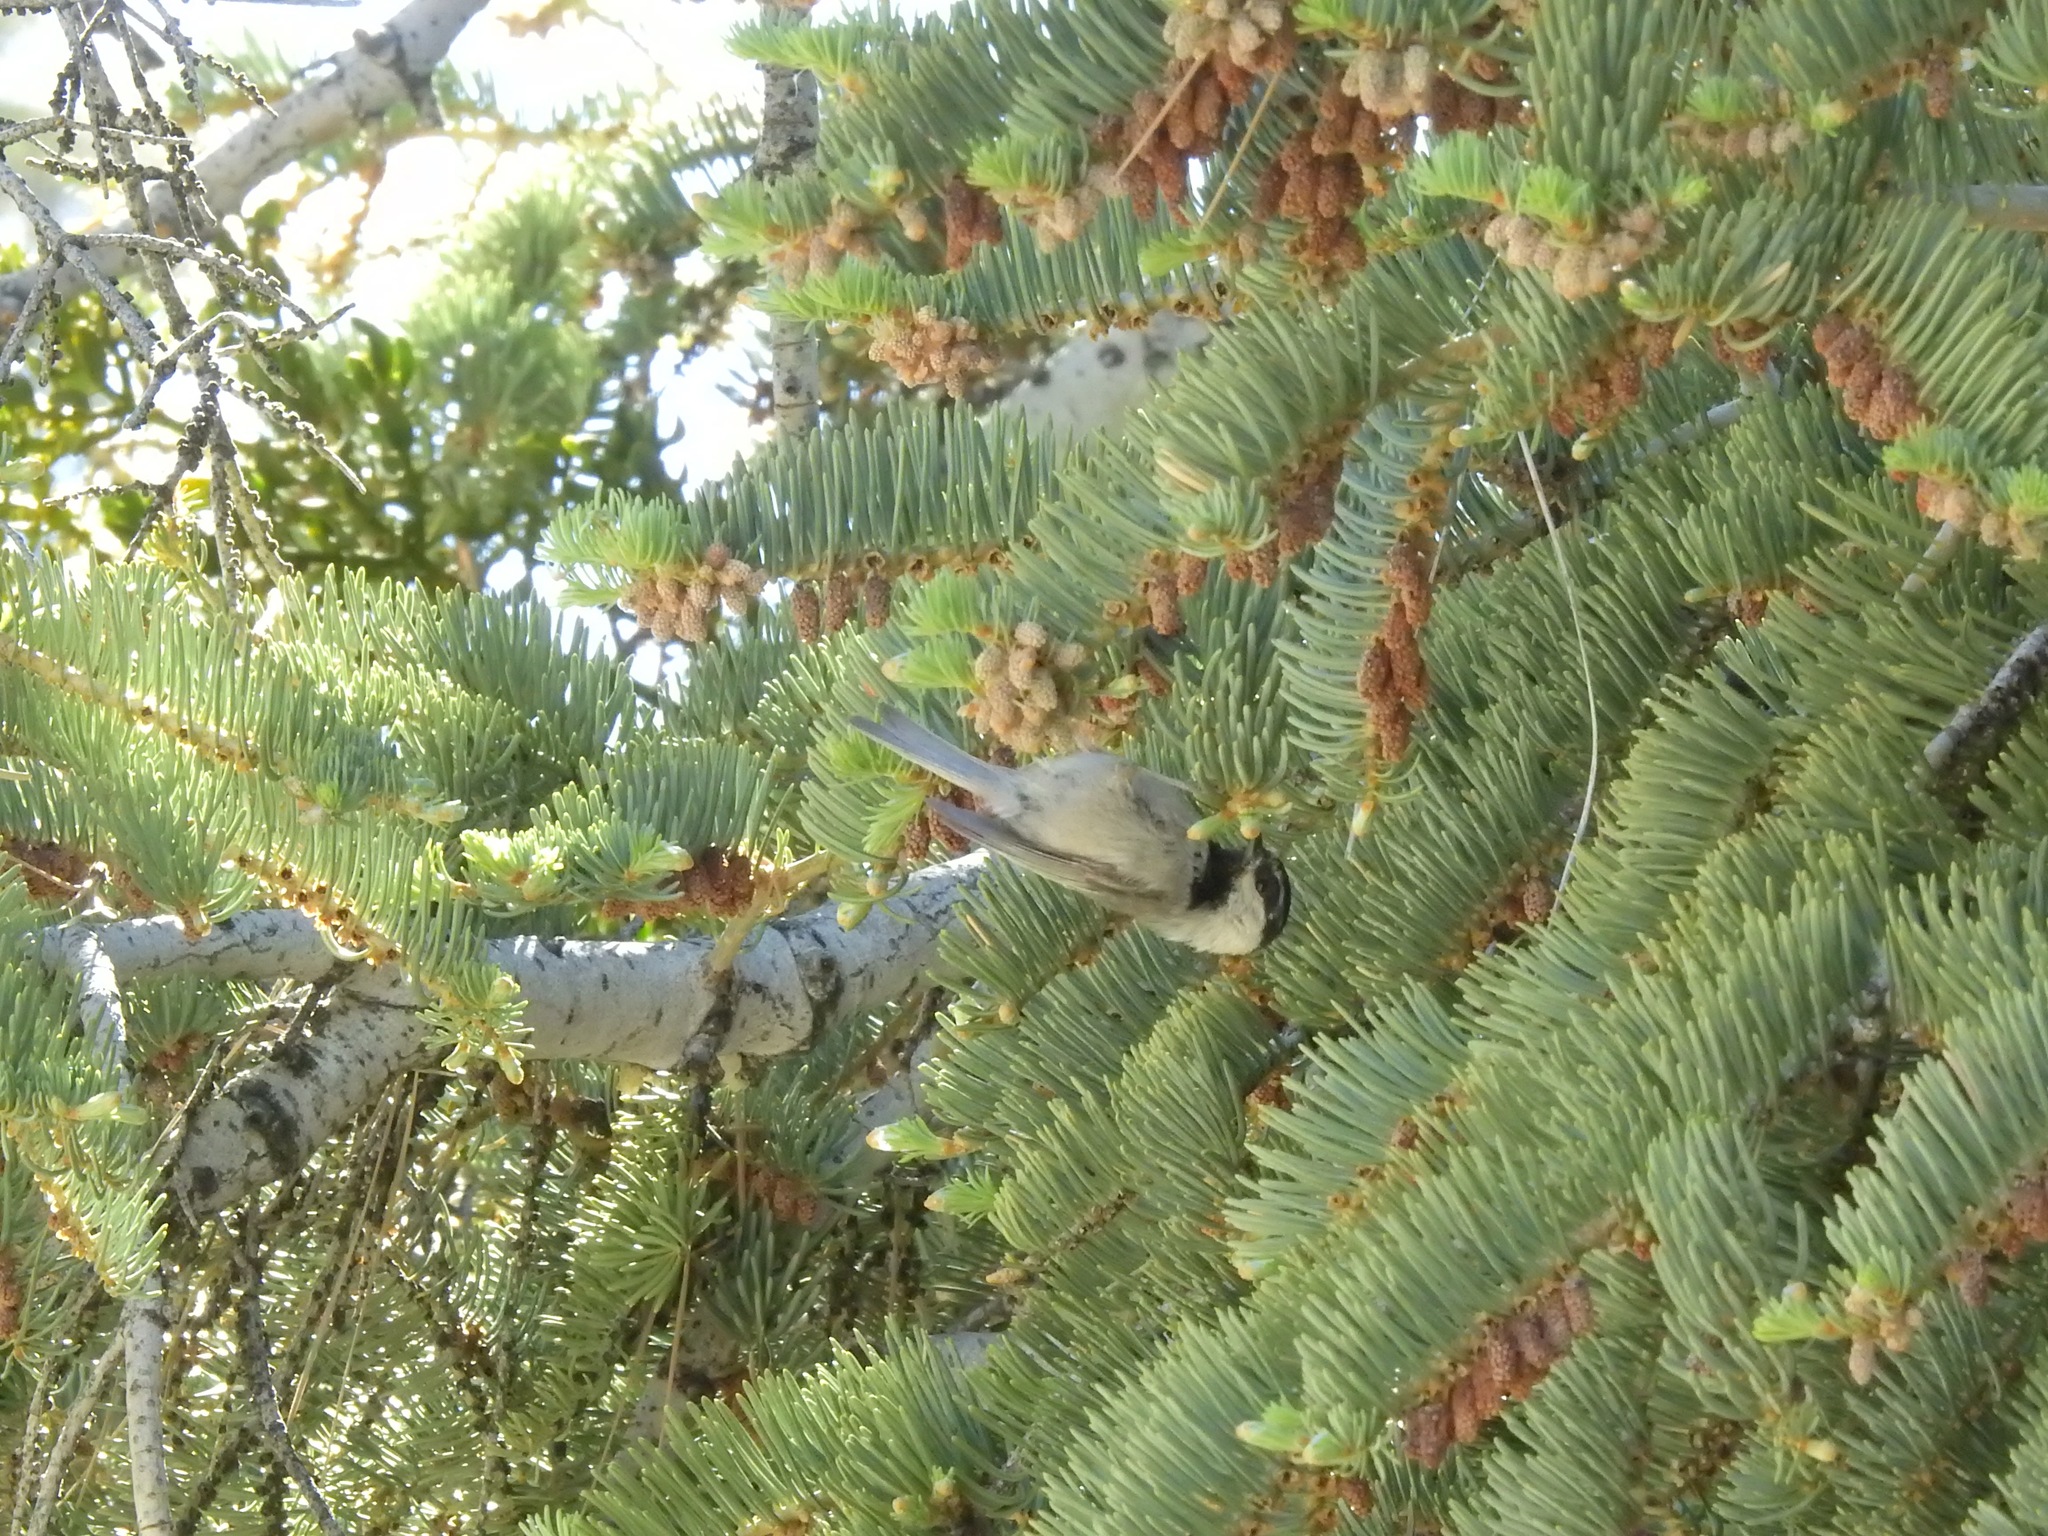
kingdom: Animalia
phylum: Chordata
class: Aves
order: Passeriformes
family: Paridae
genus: Poecile
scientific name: Poecile gambeli
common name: Mountain chickadee
